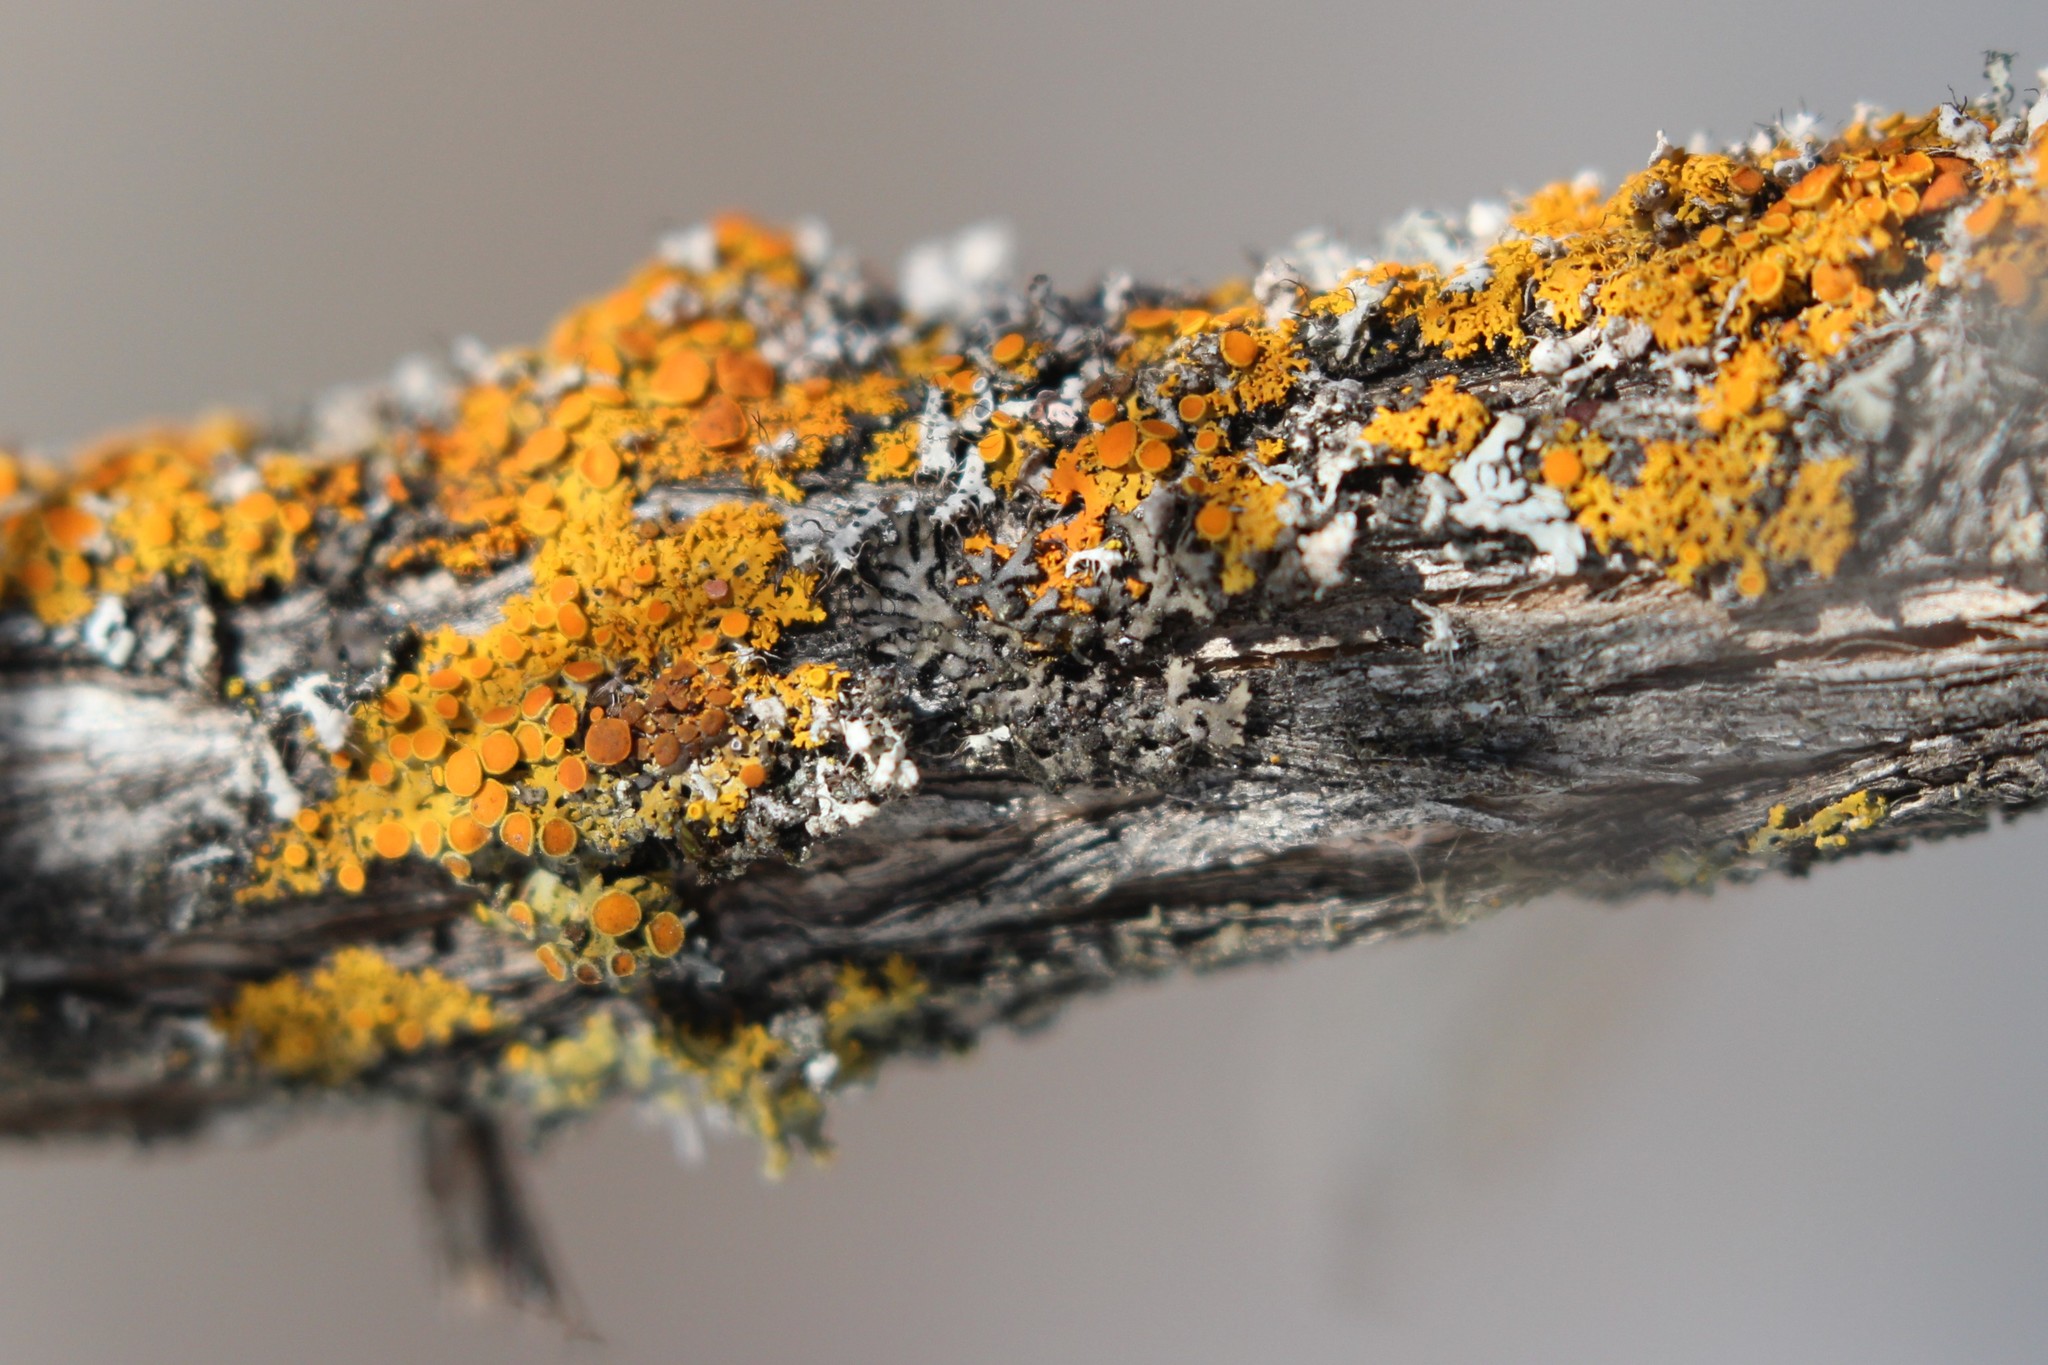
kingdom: Fungi
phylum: Ascomycota
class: Lecanoromycetes
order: Teloschistales
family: Teloschistaceae
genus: Gallowayella
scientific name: Gallowayella hasseana
